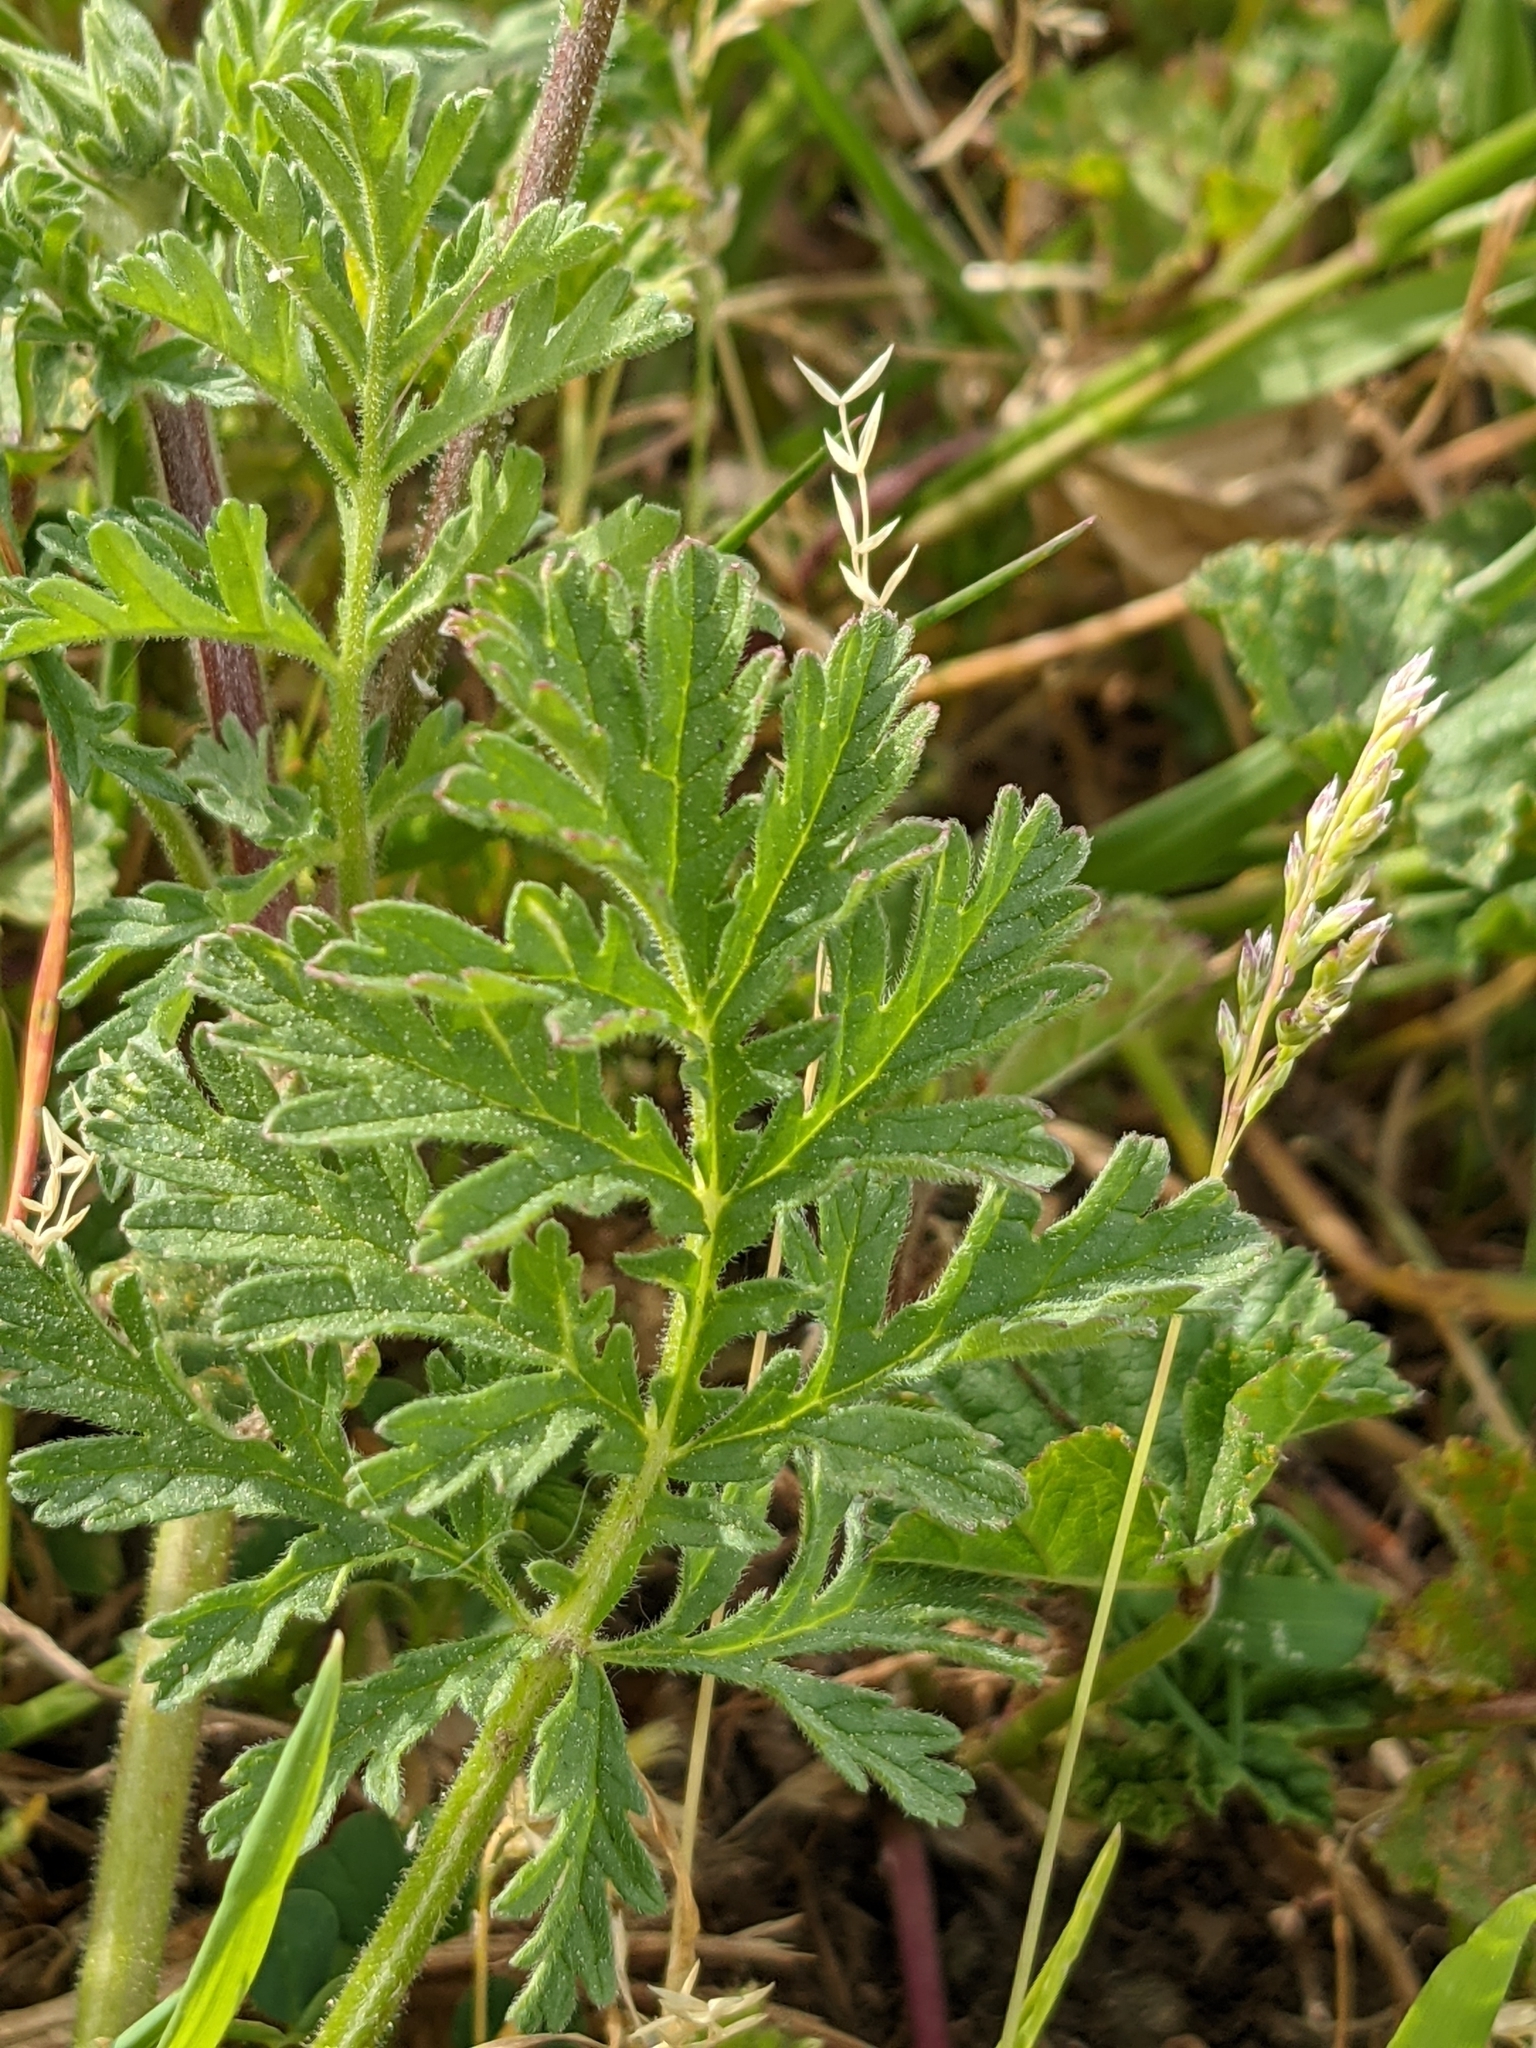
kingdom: Plantae
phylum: Tracheophyta
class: Magnoliopsida
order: Geraniales
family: Geraniaceae
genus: Erodium
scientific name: Erodium ciconium
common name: Common stork's bill
